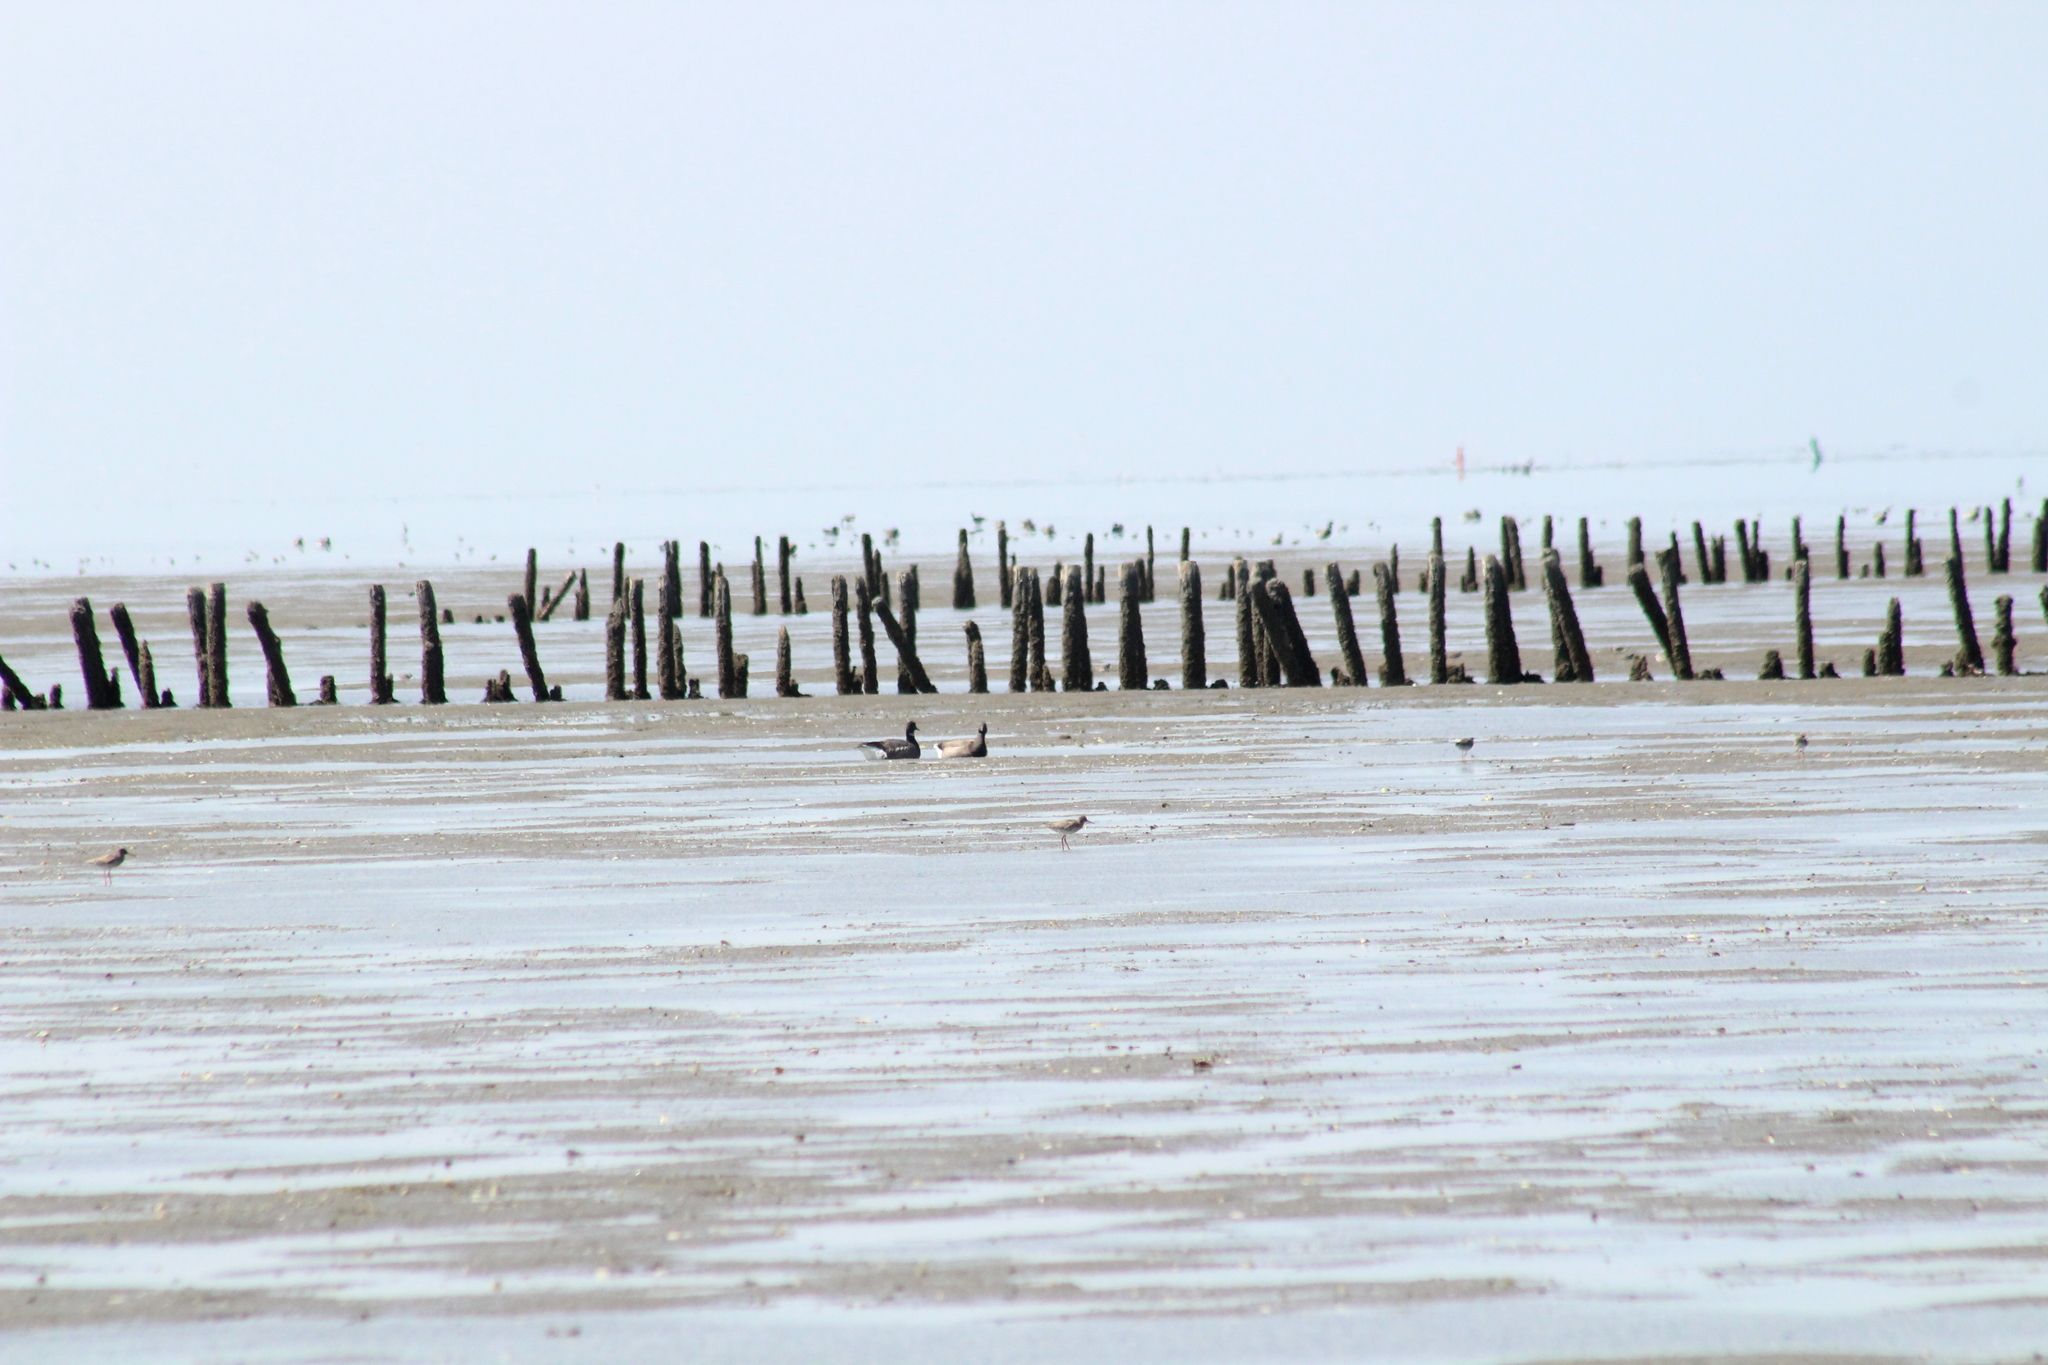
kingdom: Animalia
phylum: Chordata
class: Aves
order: Anseriformes
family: Anatidae
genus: Branta
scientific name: Branta bernicla
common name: Brant goose
